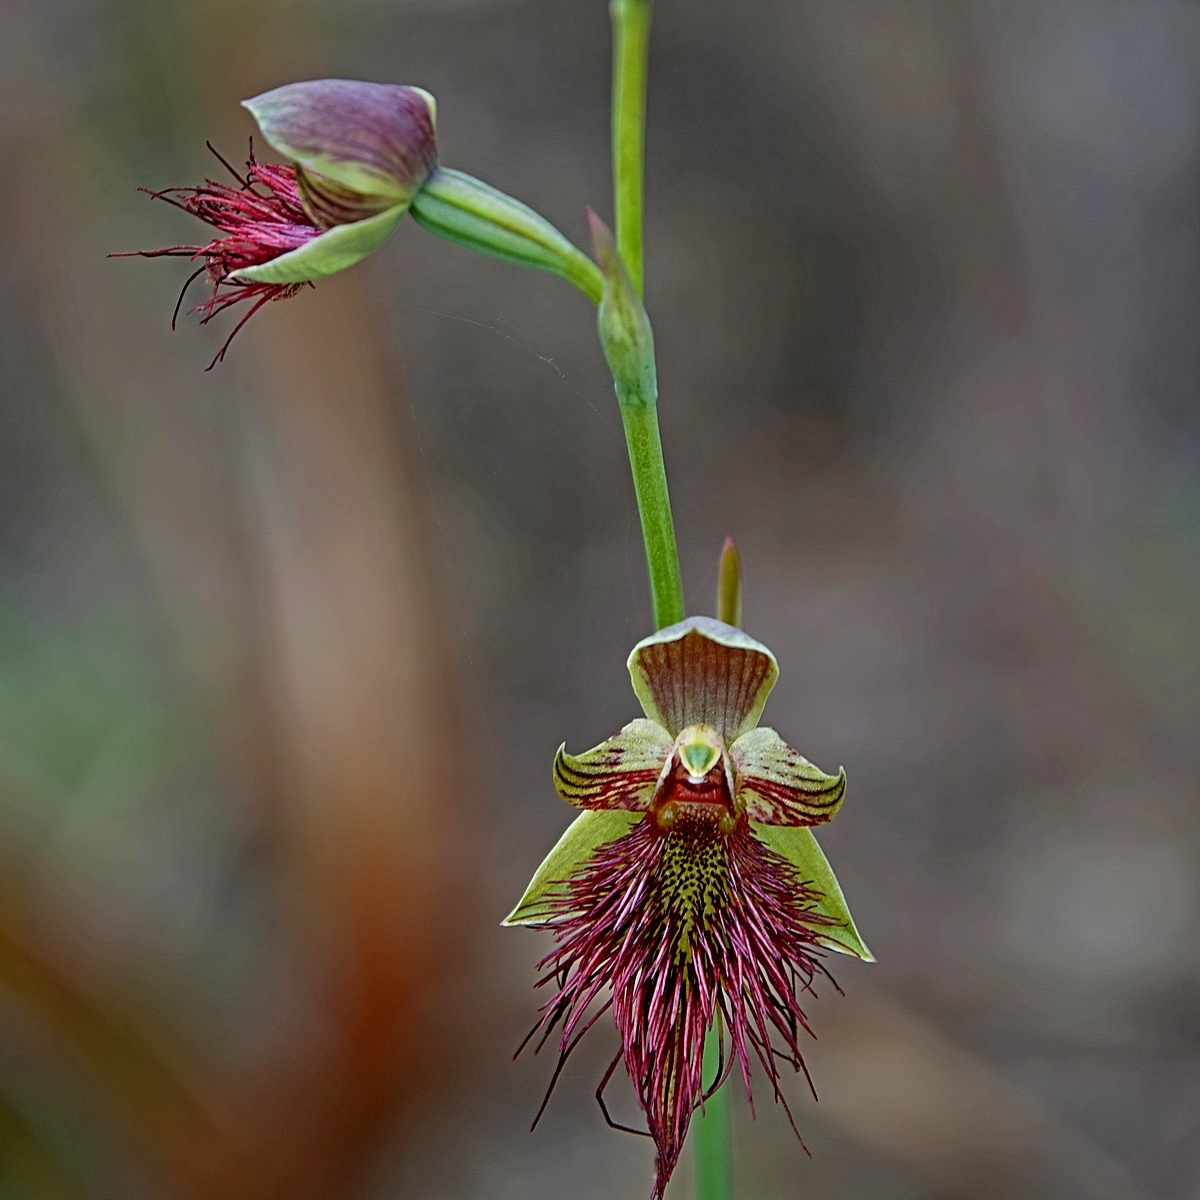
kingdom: Plantae
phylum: Tracheophyta
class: Liliopsida
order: Asparagales
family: Orchidaceae
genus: Calochilus
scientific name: Calochilus paludosus
